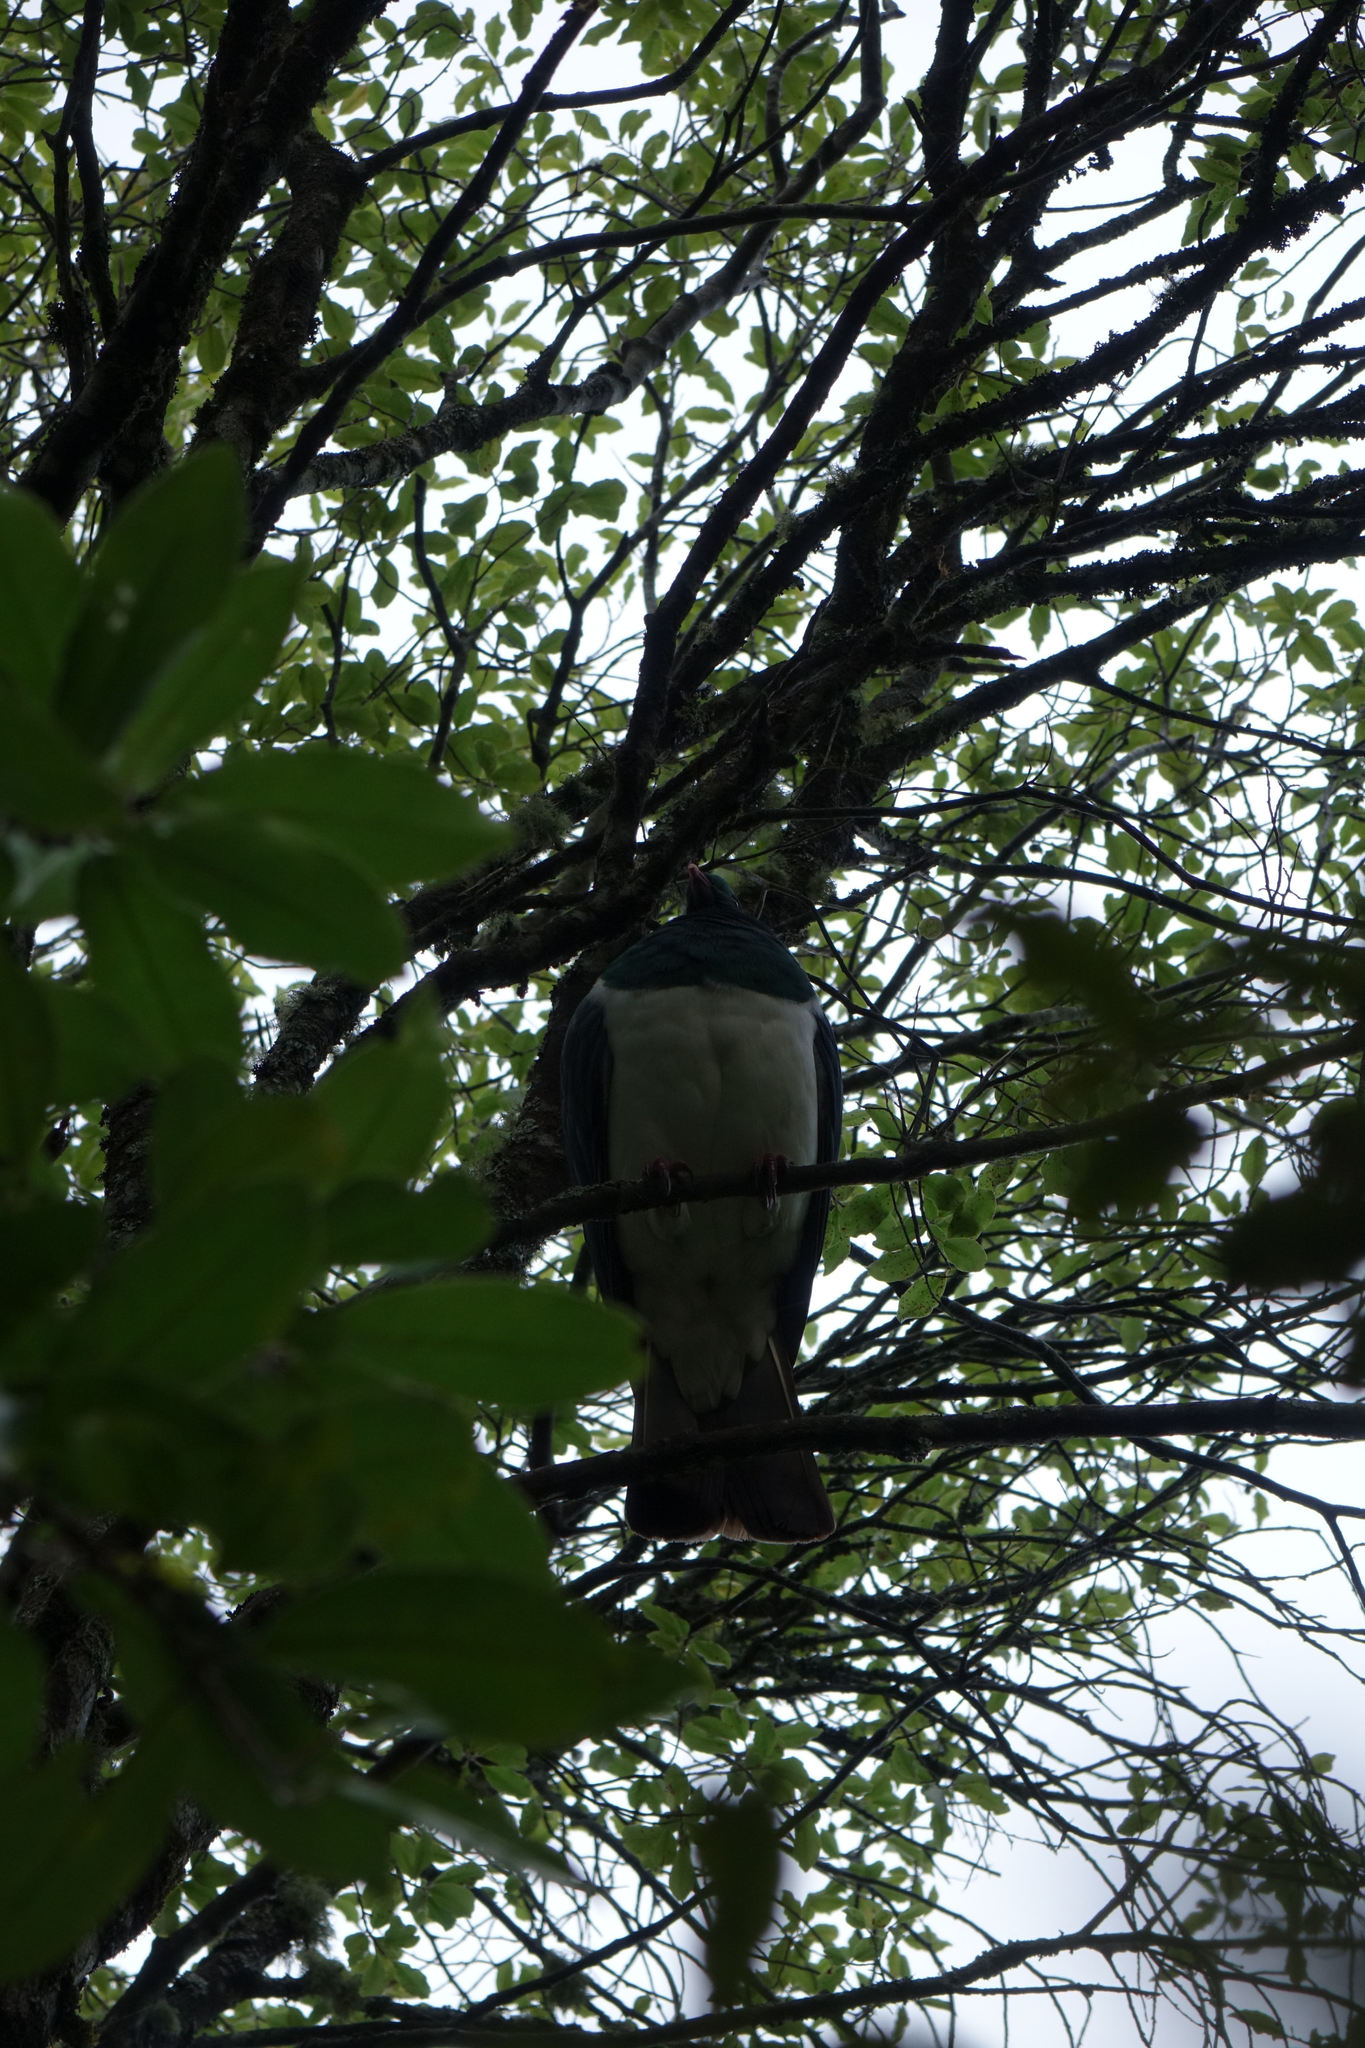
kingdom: Animalia
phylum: Chordata
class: Aves
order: Columbiformes
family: Columbidae
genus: Hemiphaga
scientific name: Hemiphaga novaeseelandiae
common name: New zealand pigeon
